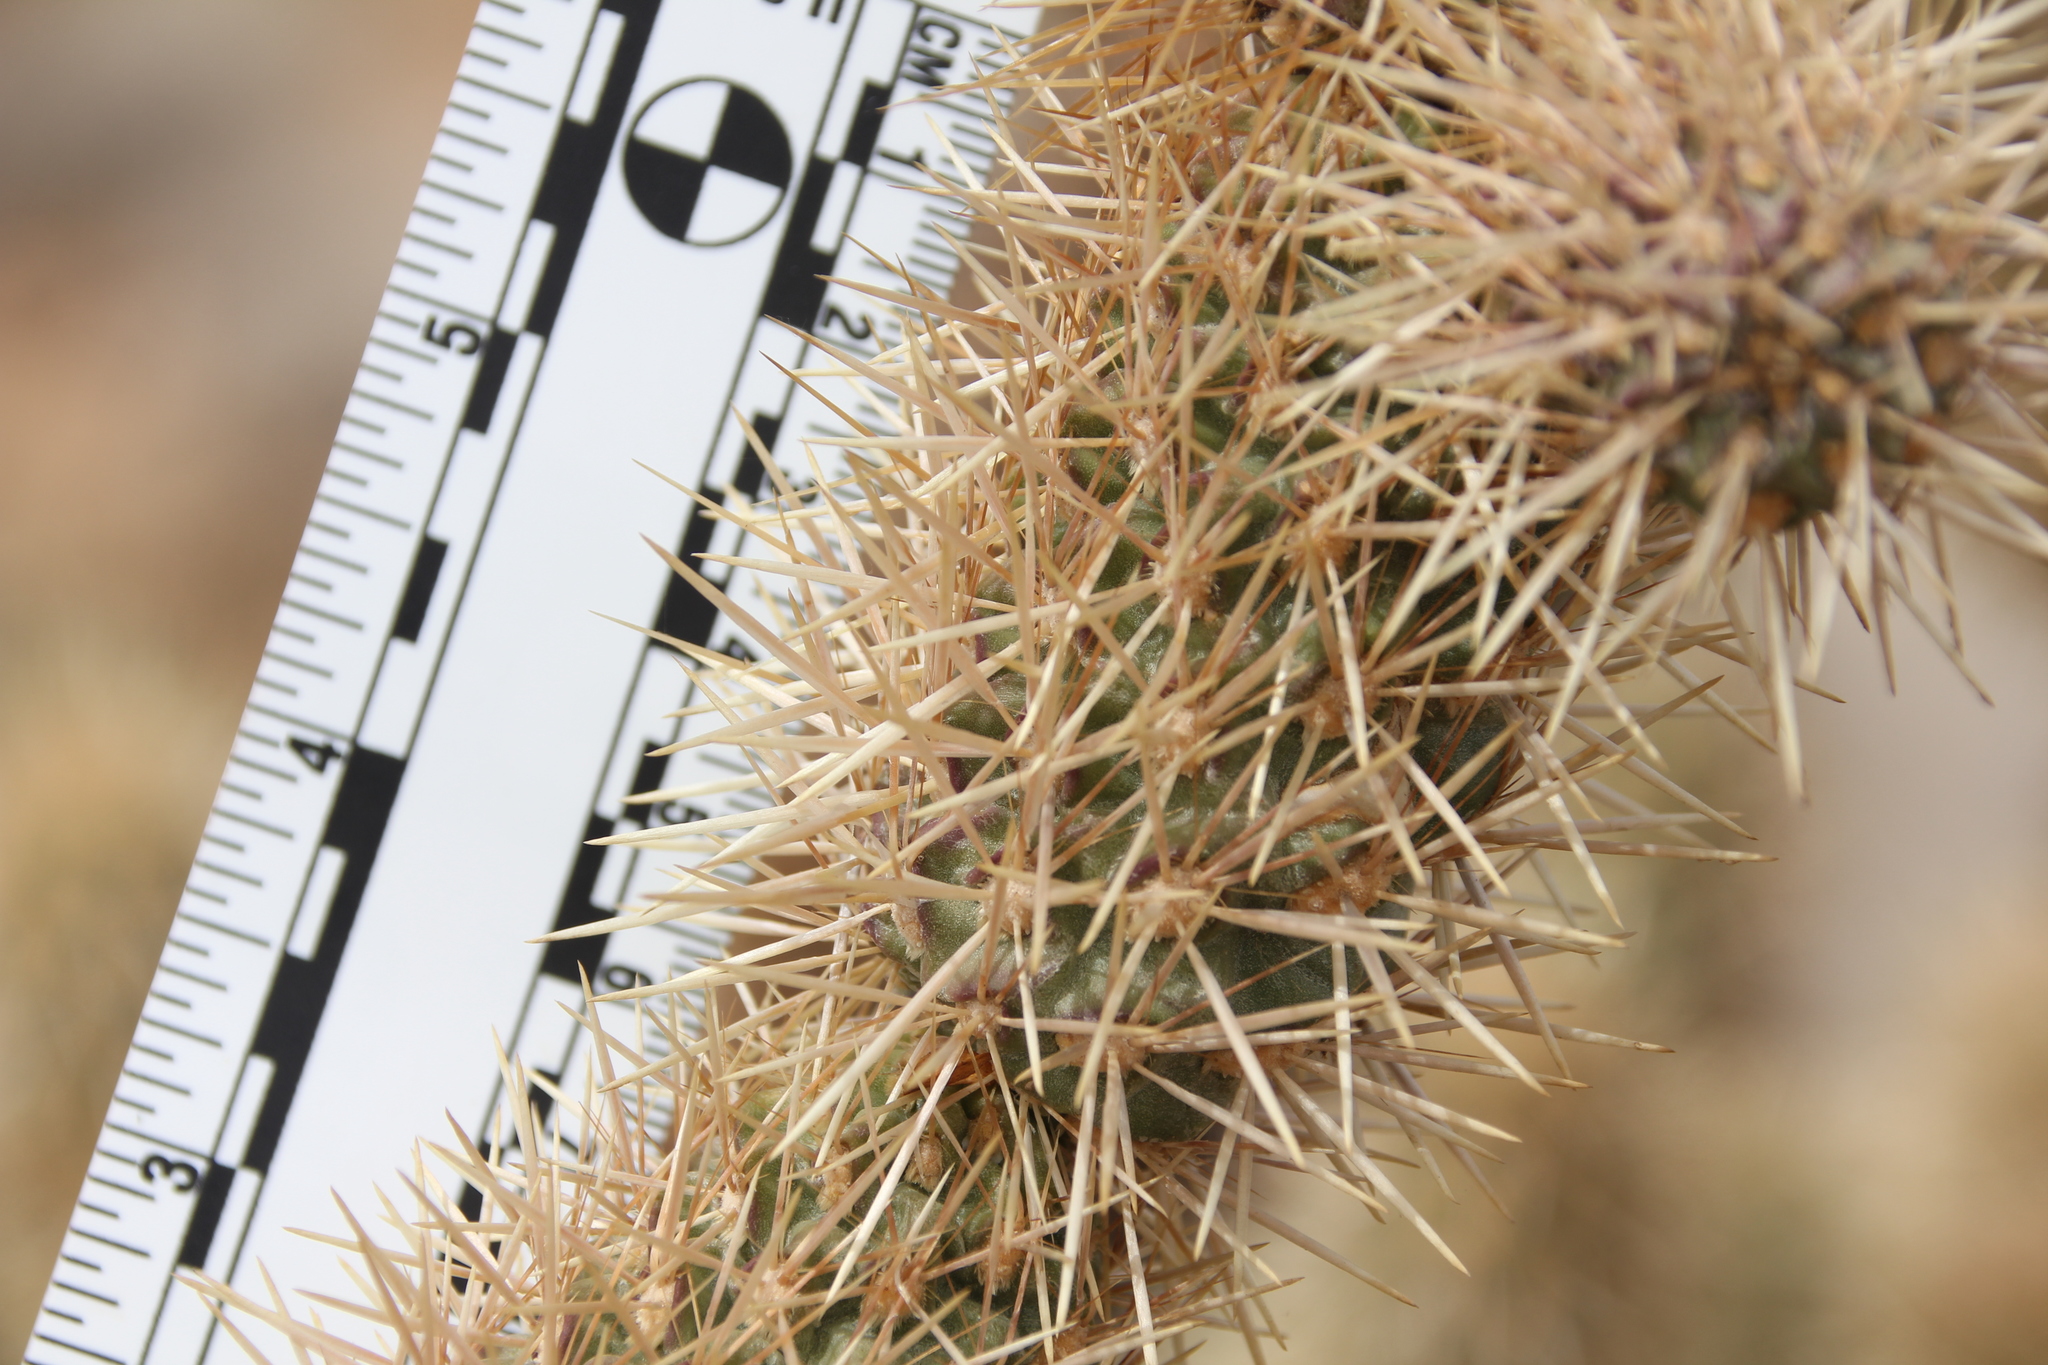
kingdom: Plantae
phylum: Tracheophyta
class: Magnoliopsida
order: Caryophyllales
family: Cactaceae
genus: Cylindropuntia
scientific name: Cylindropuntia fosbergii
